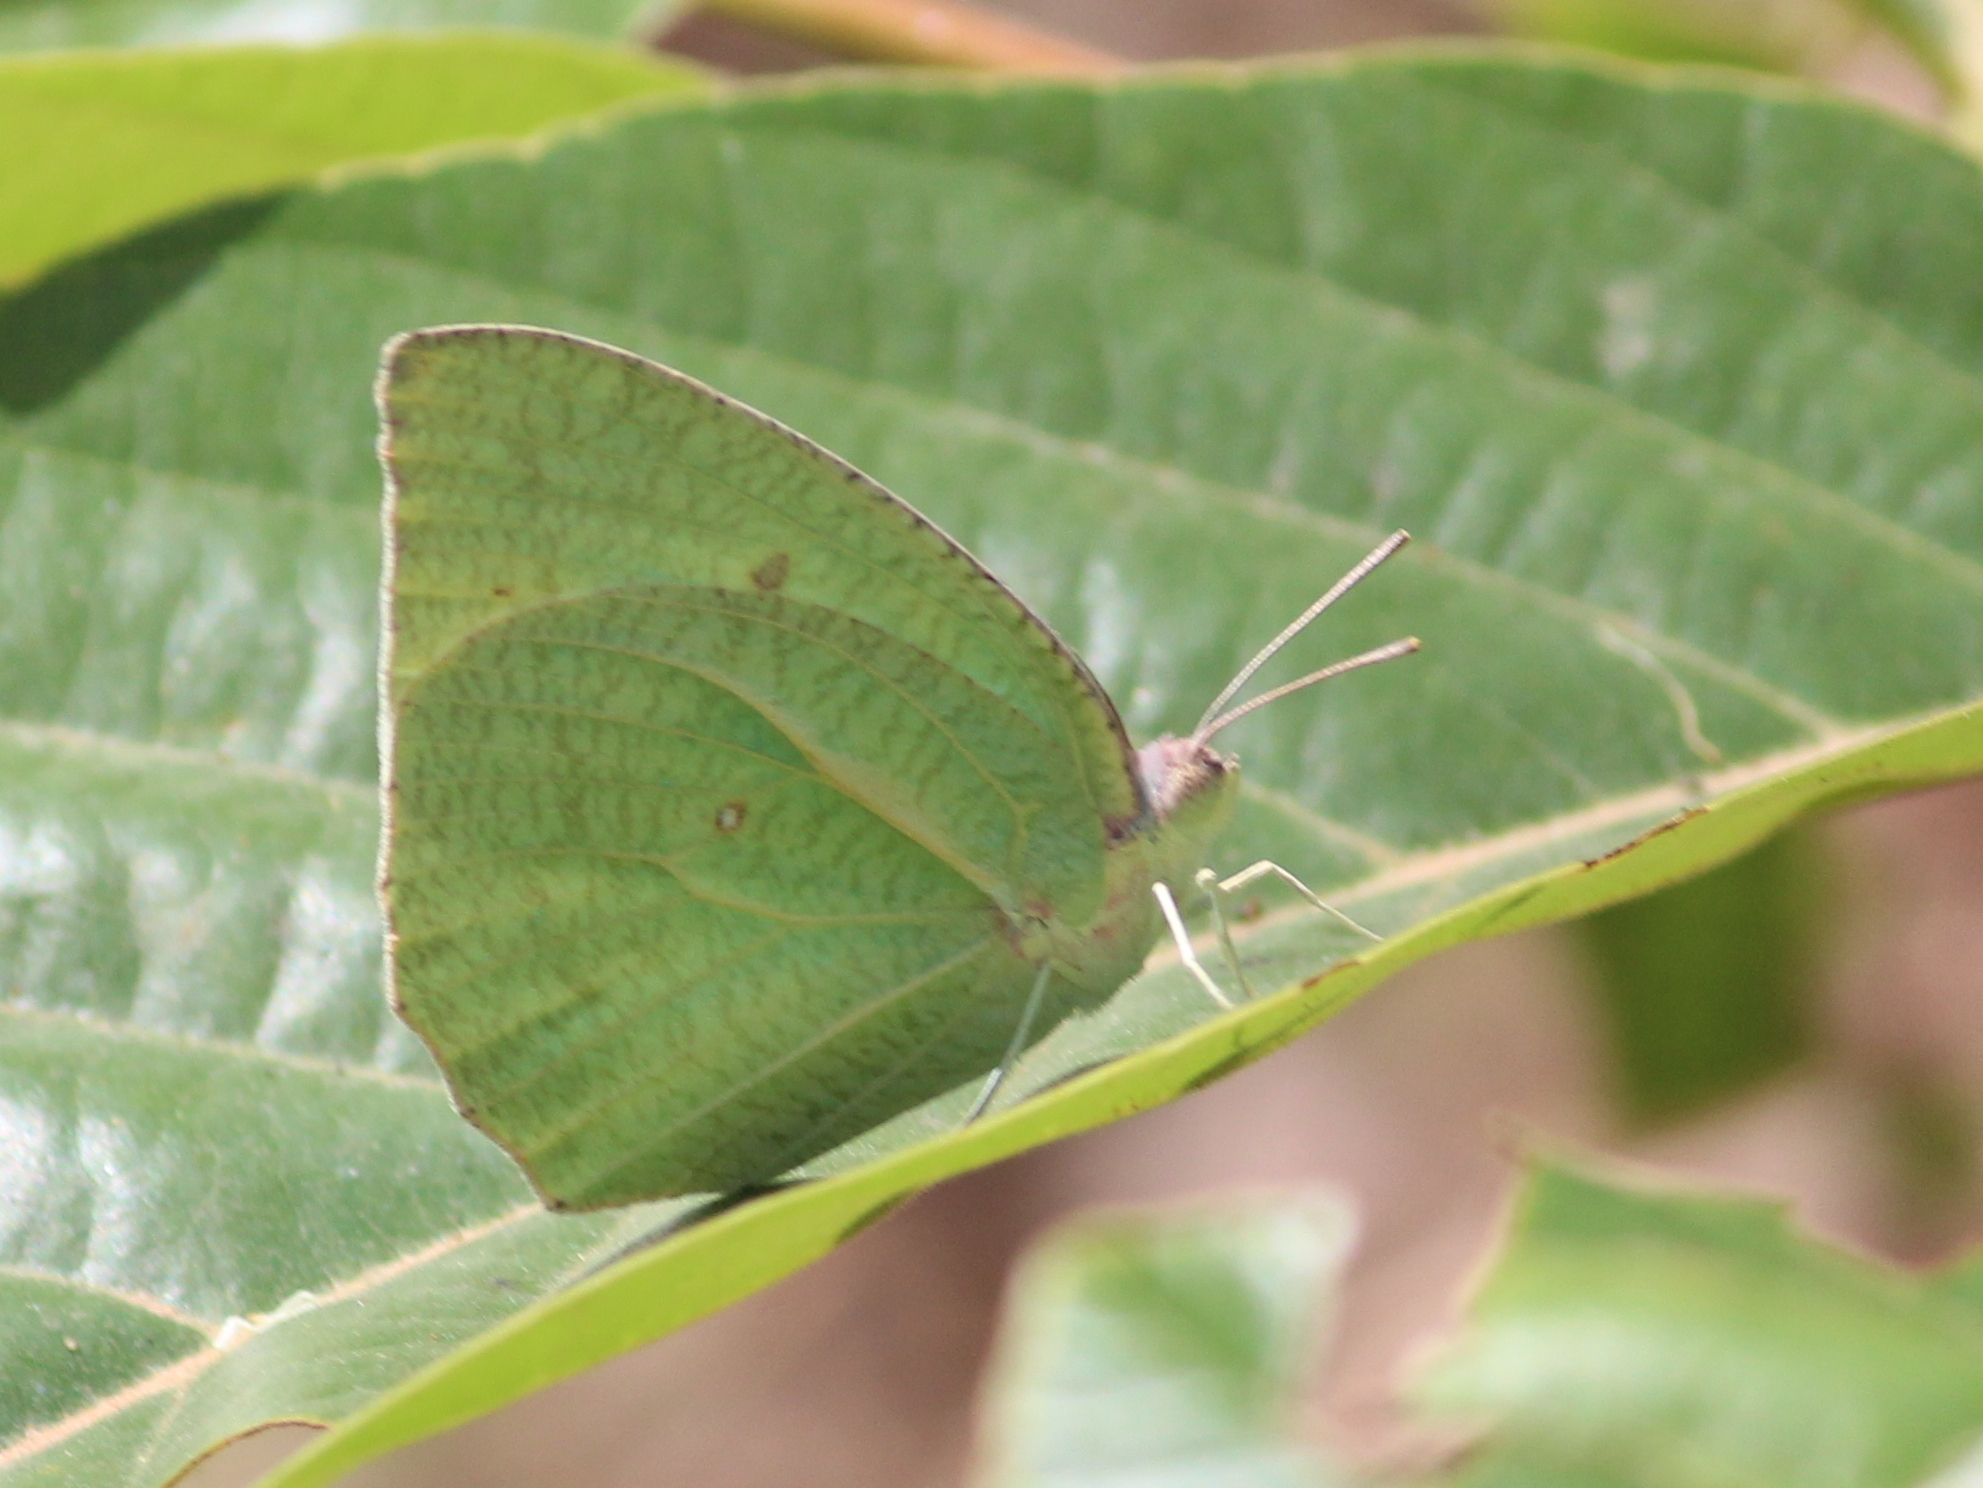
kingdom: Animalia
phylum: Arthropoda
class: Insecta
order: Lepidoptera
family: Pieridae
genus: Catopsilia
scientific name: Catopsilia pyranthe
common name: Mottled emigrant
